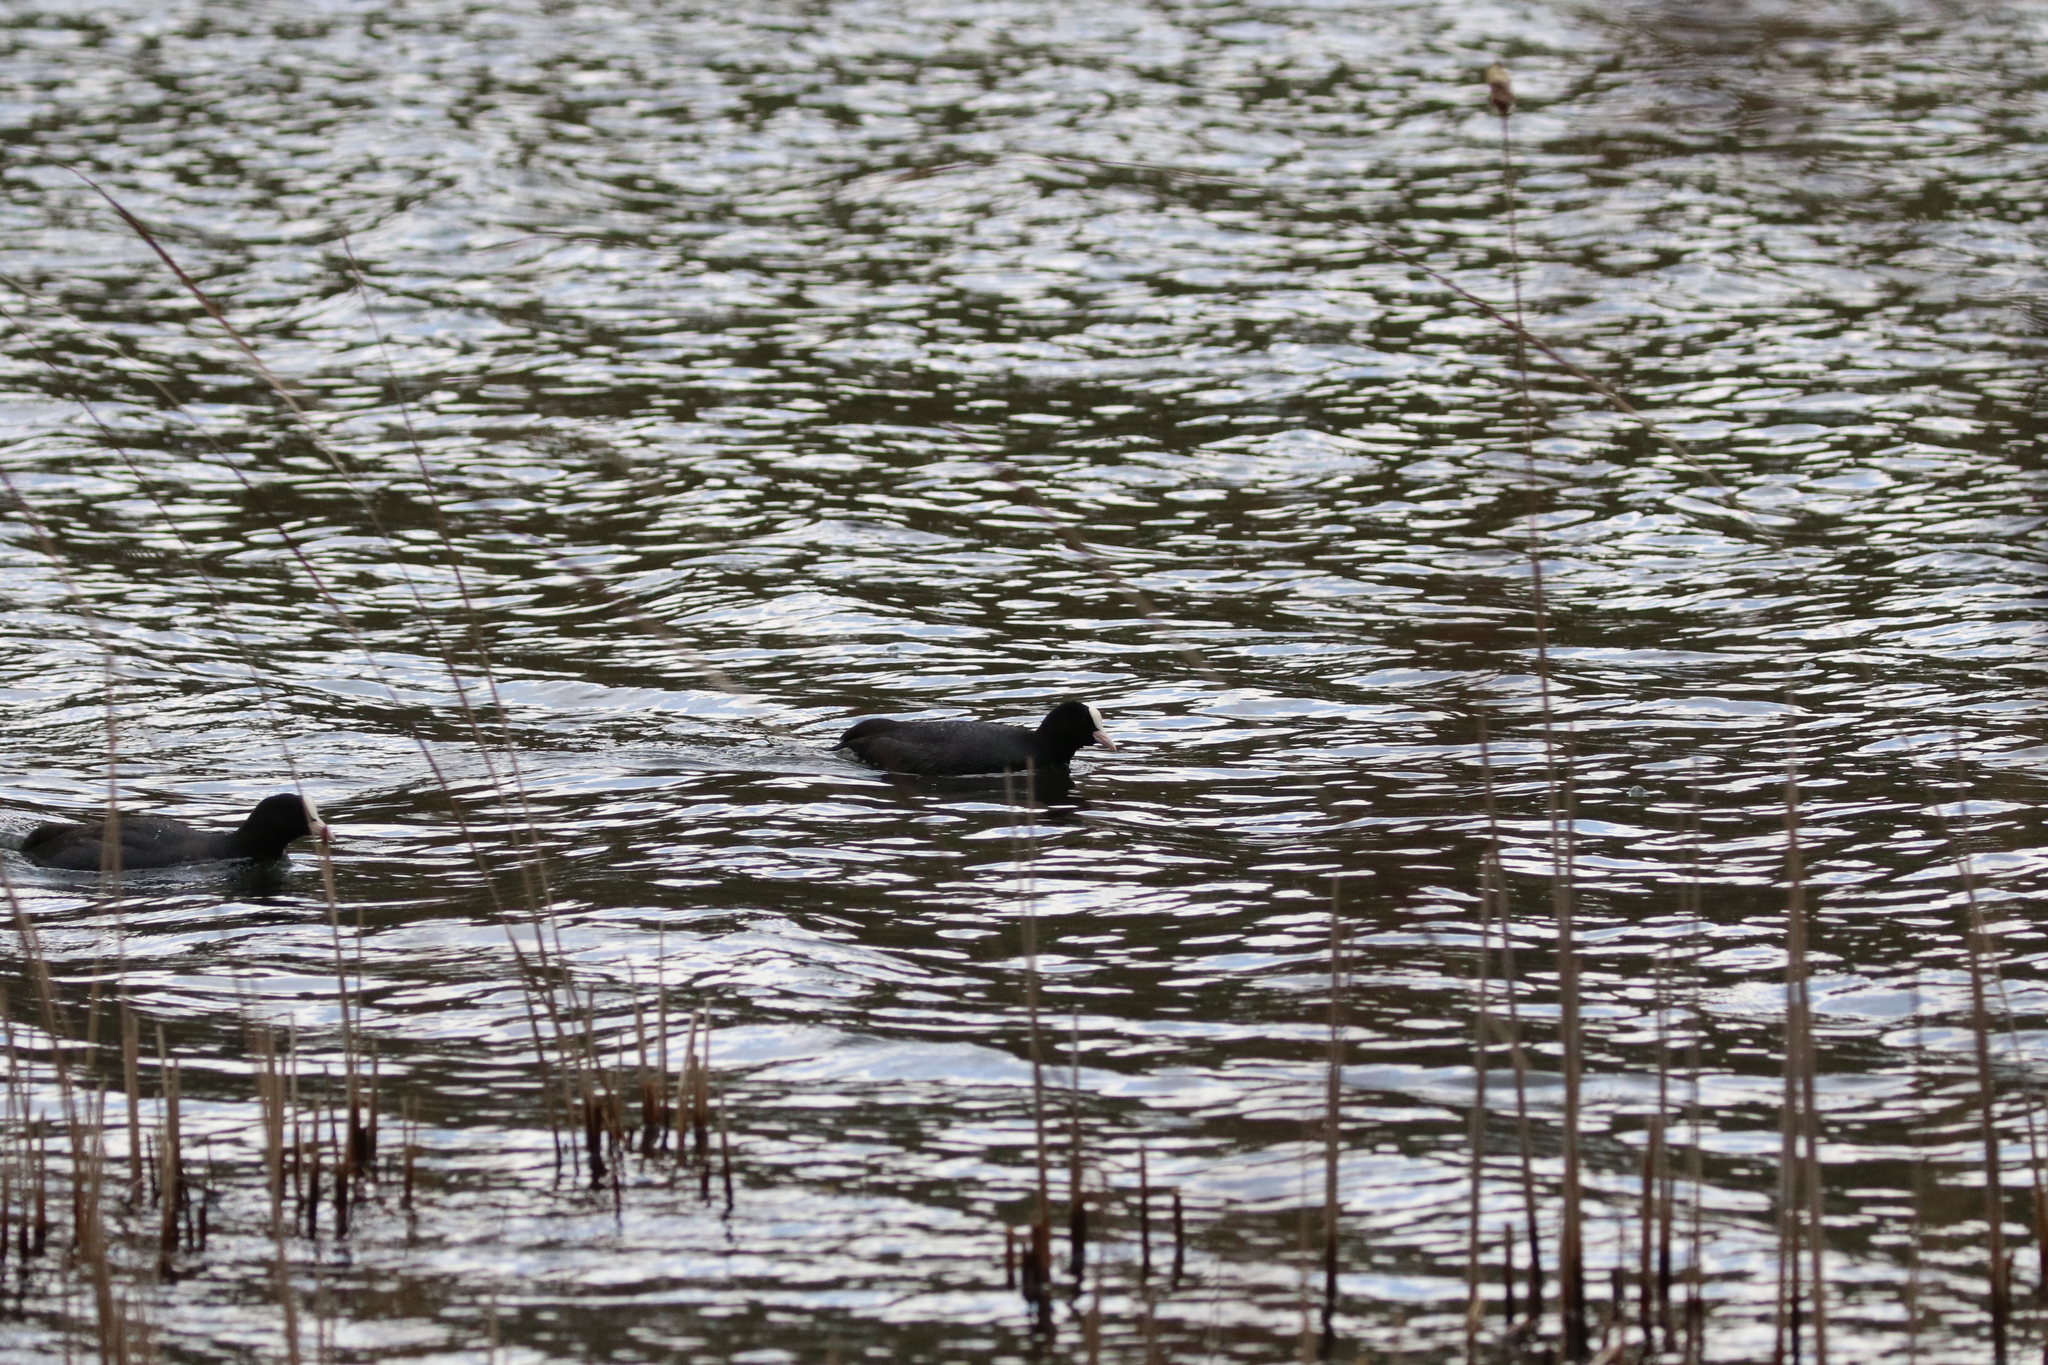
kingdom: Animalia
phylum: Chordata
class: Aves
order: Gruiformes
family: Rallidae
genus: Fulica
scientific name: Fulica atra
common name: Eurasian coot
